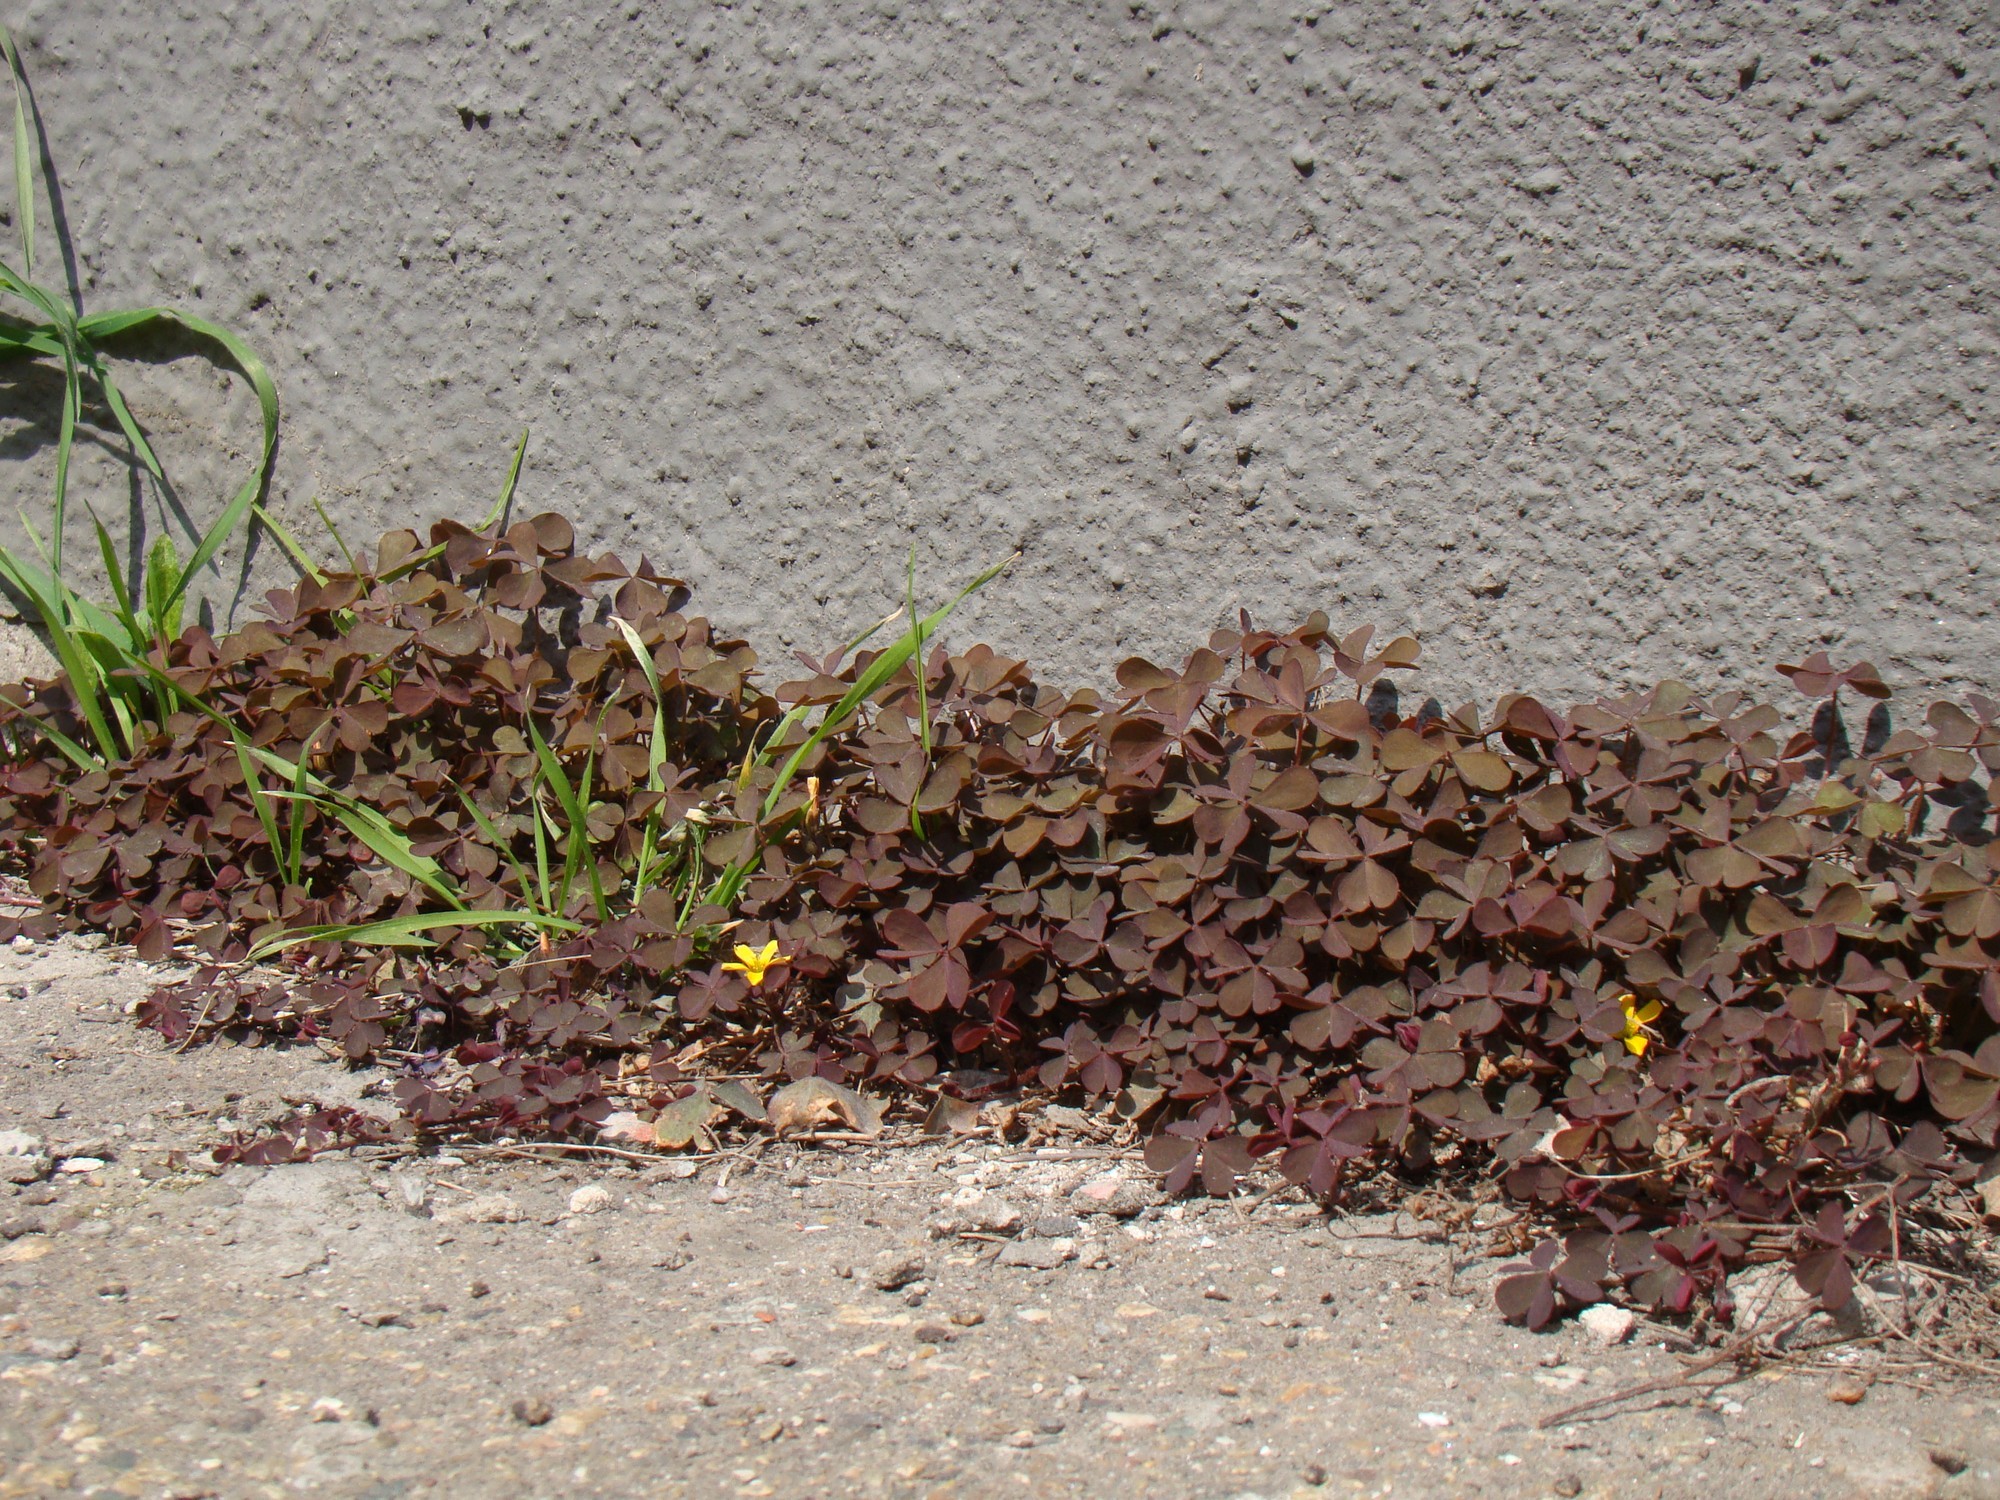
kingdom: Plantae
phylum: Tracheophyta
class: Magnoliopsida
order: Oxalidales
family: Oxalidaceae
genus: Oxalis
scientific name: Oxalis corniculata
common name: Procumbent yellow-sorrel
